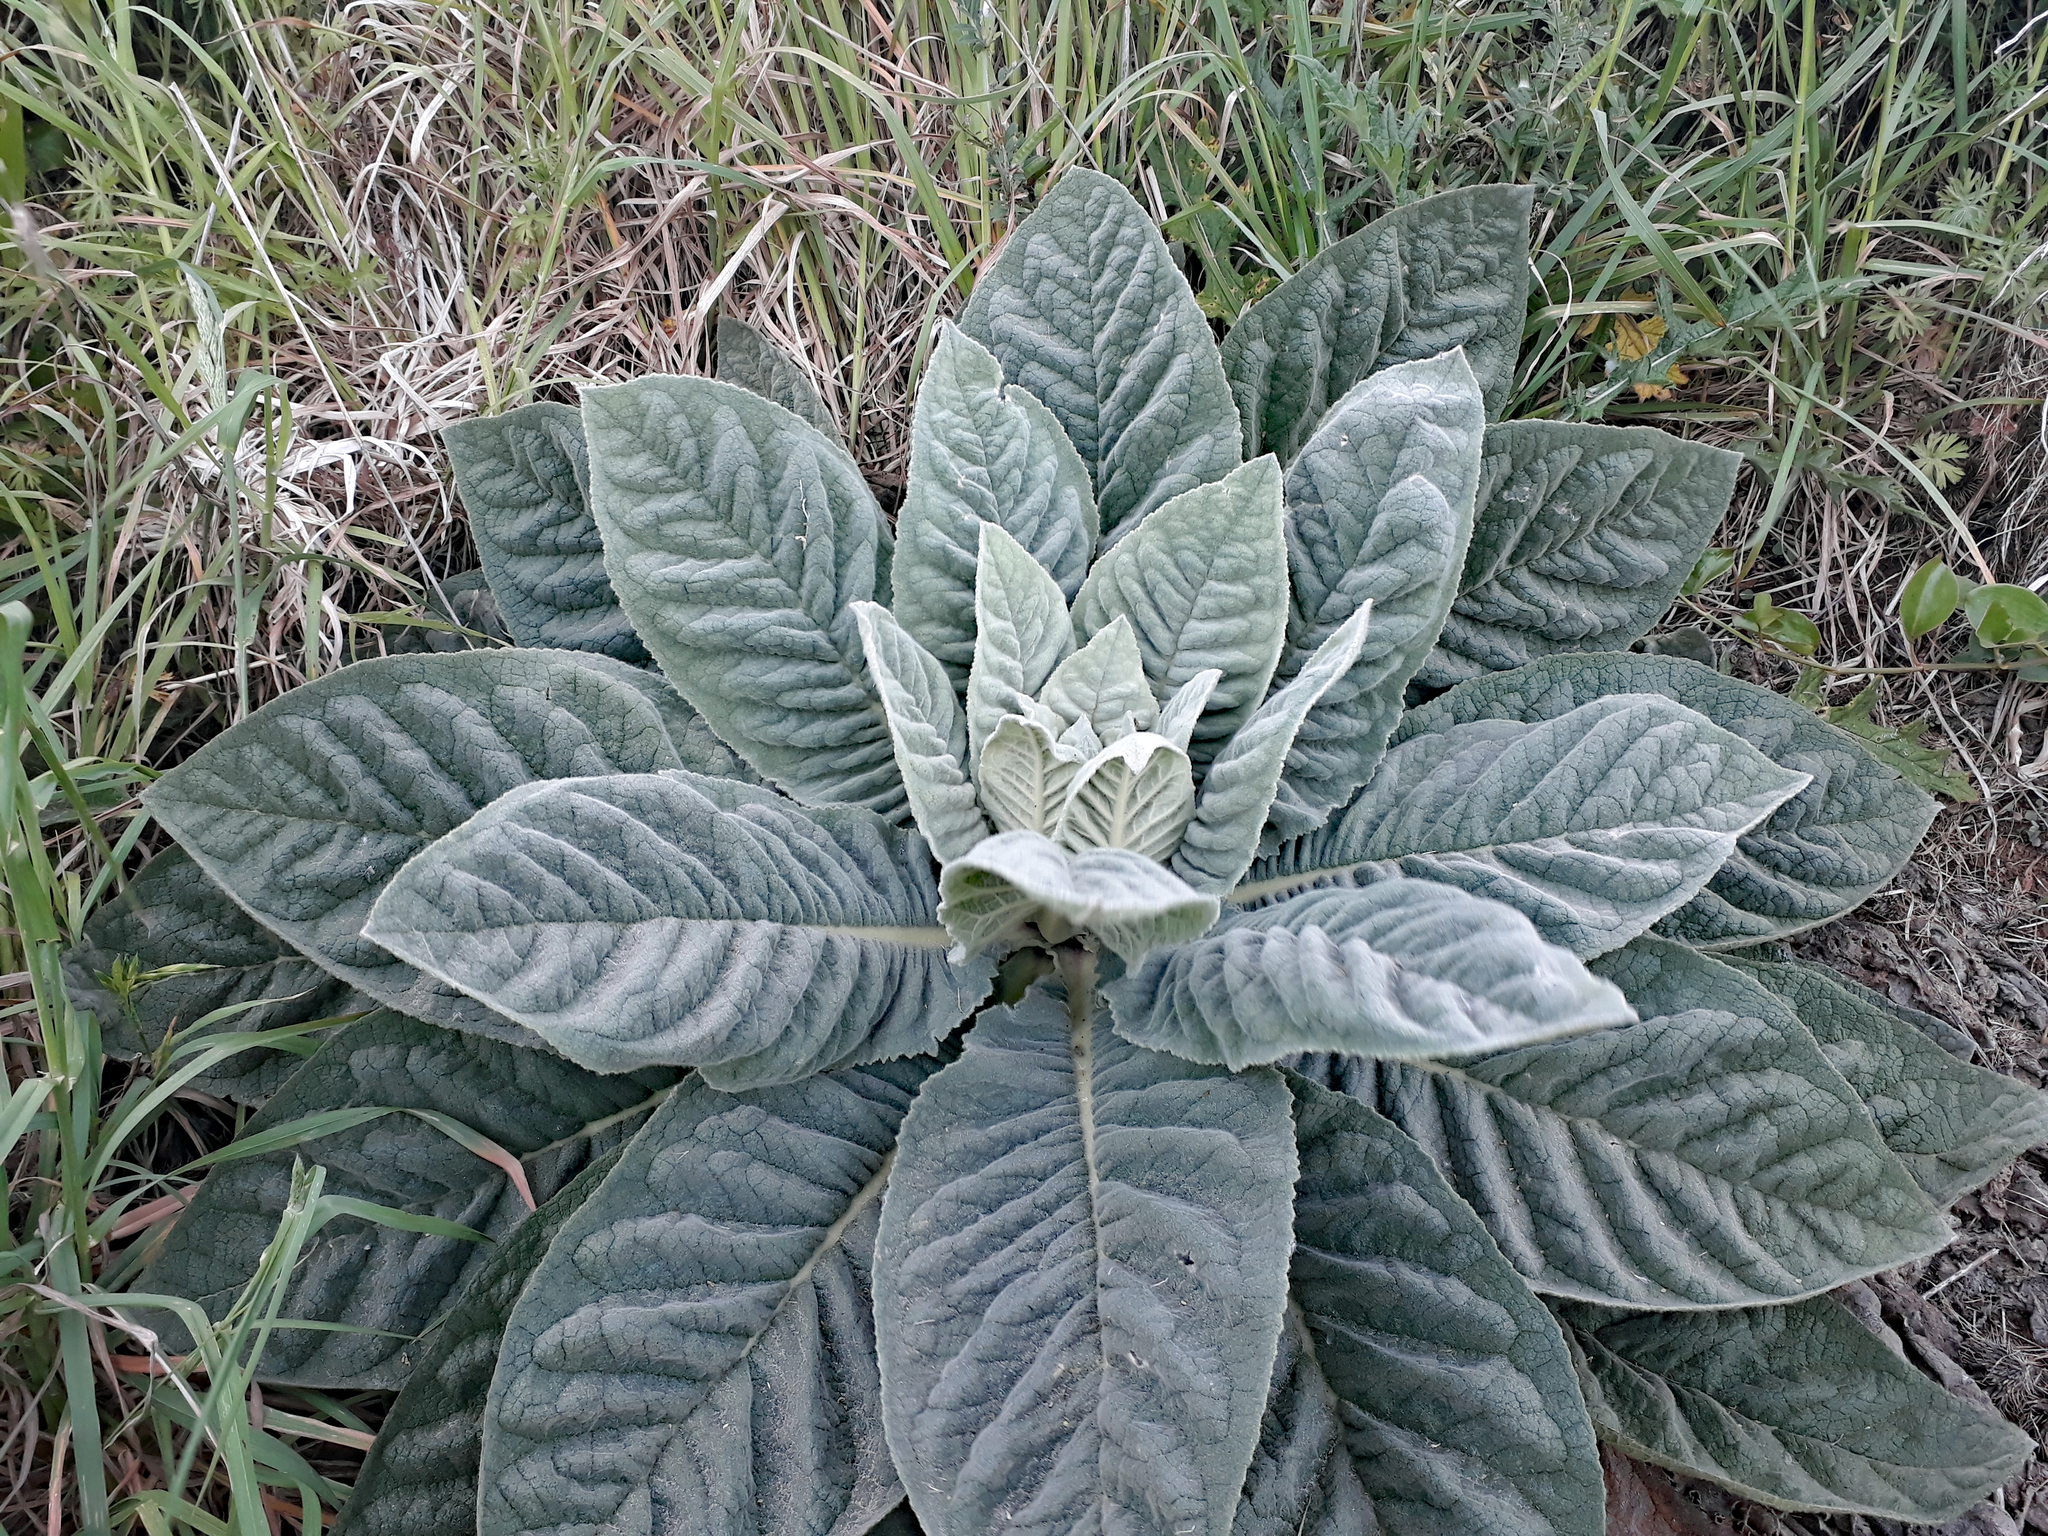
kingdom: Plantae
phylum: Tracheophyta
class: Magnoliopsida
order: Lamiales
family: Scrophulariaceae
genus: Verbascum
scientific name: Verbascum thapsus
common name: Common mullein
